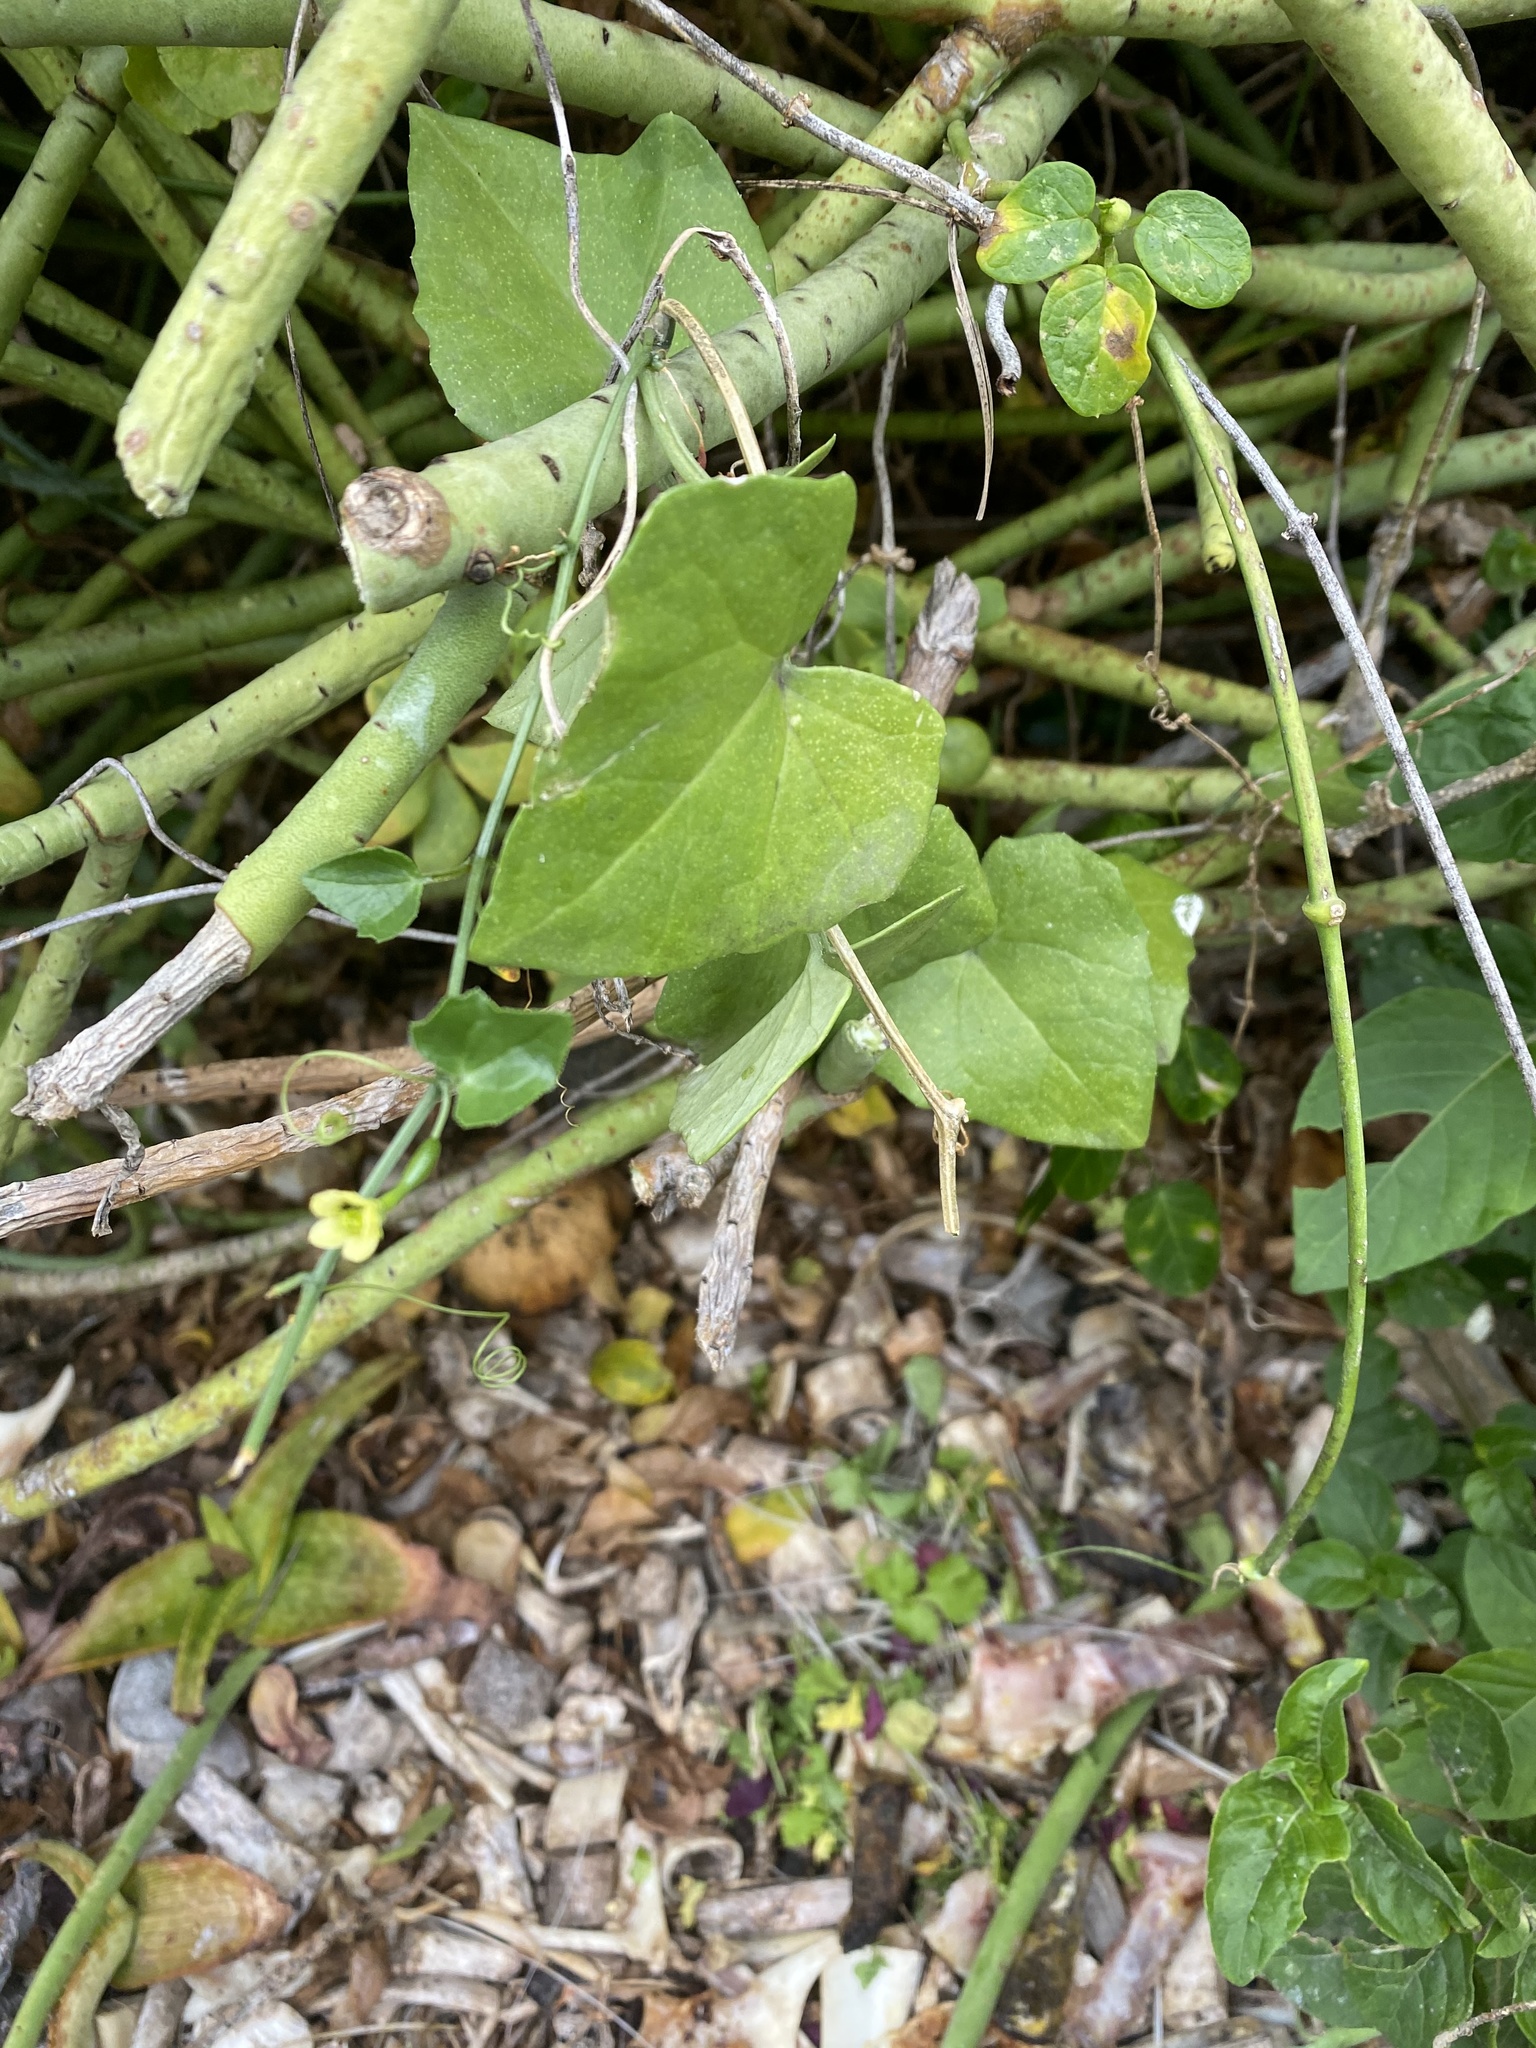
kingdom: Plantae
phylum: Tracheophyta
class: Magnoliopsida
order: Cucurbitales
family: Cucurbitaceae
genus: Kedrostis
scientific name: Kedrostis nana
